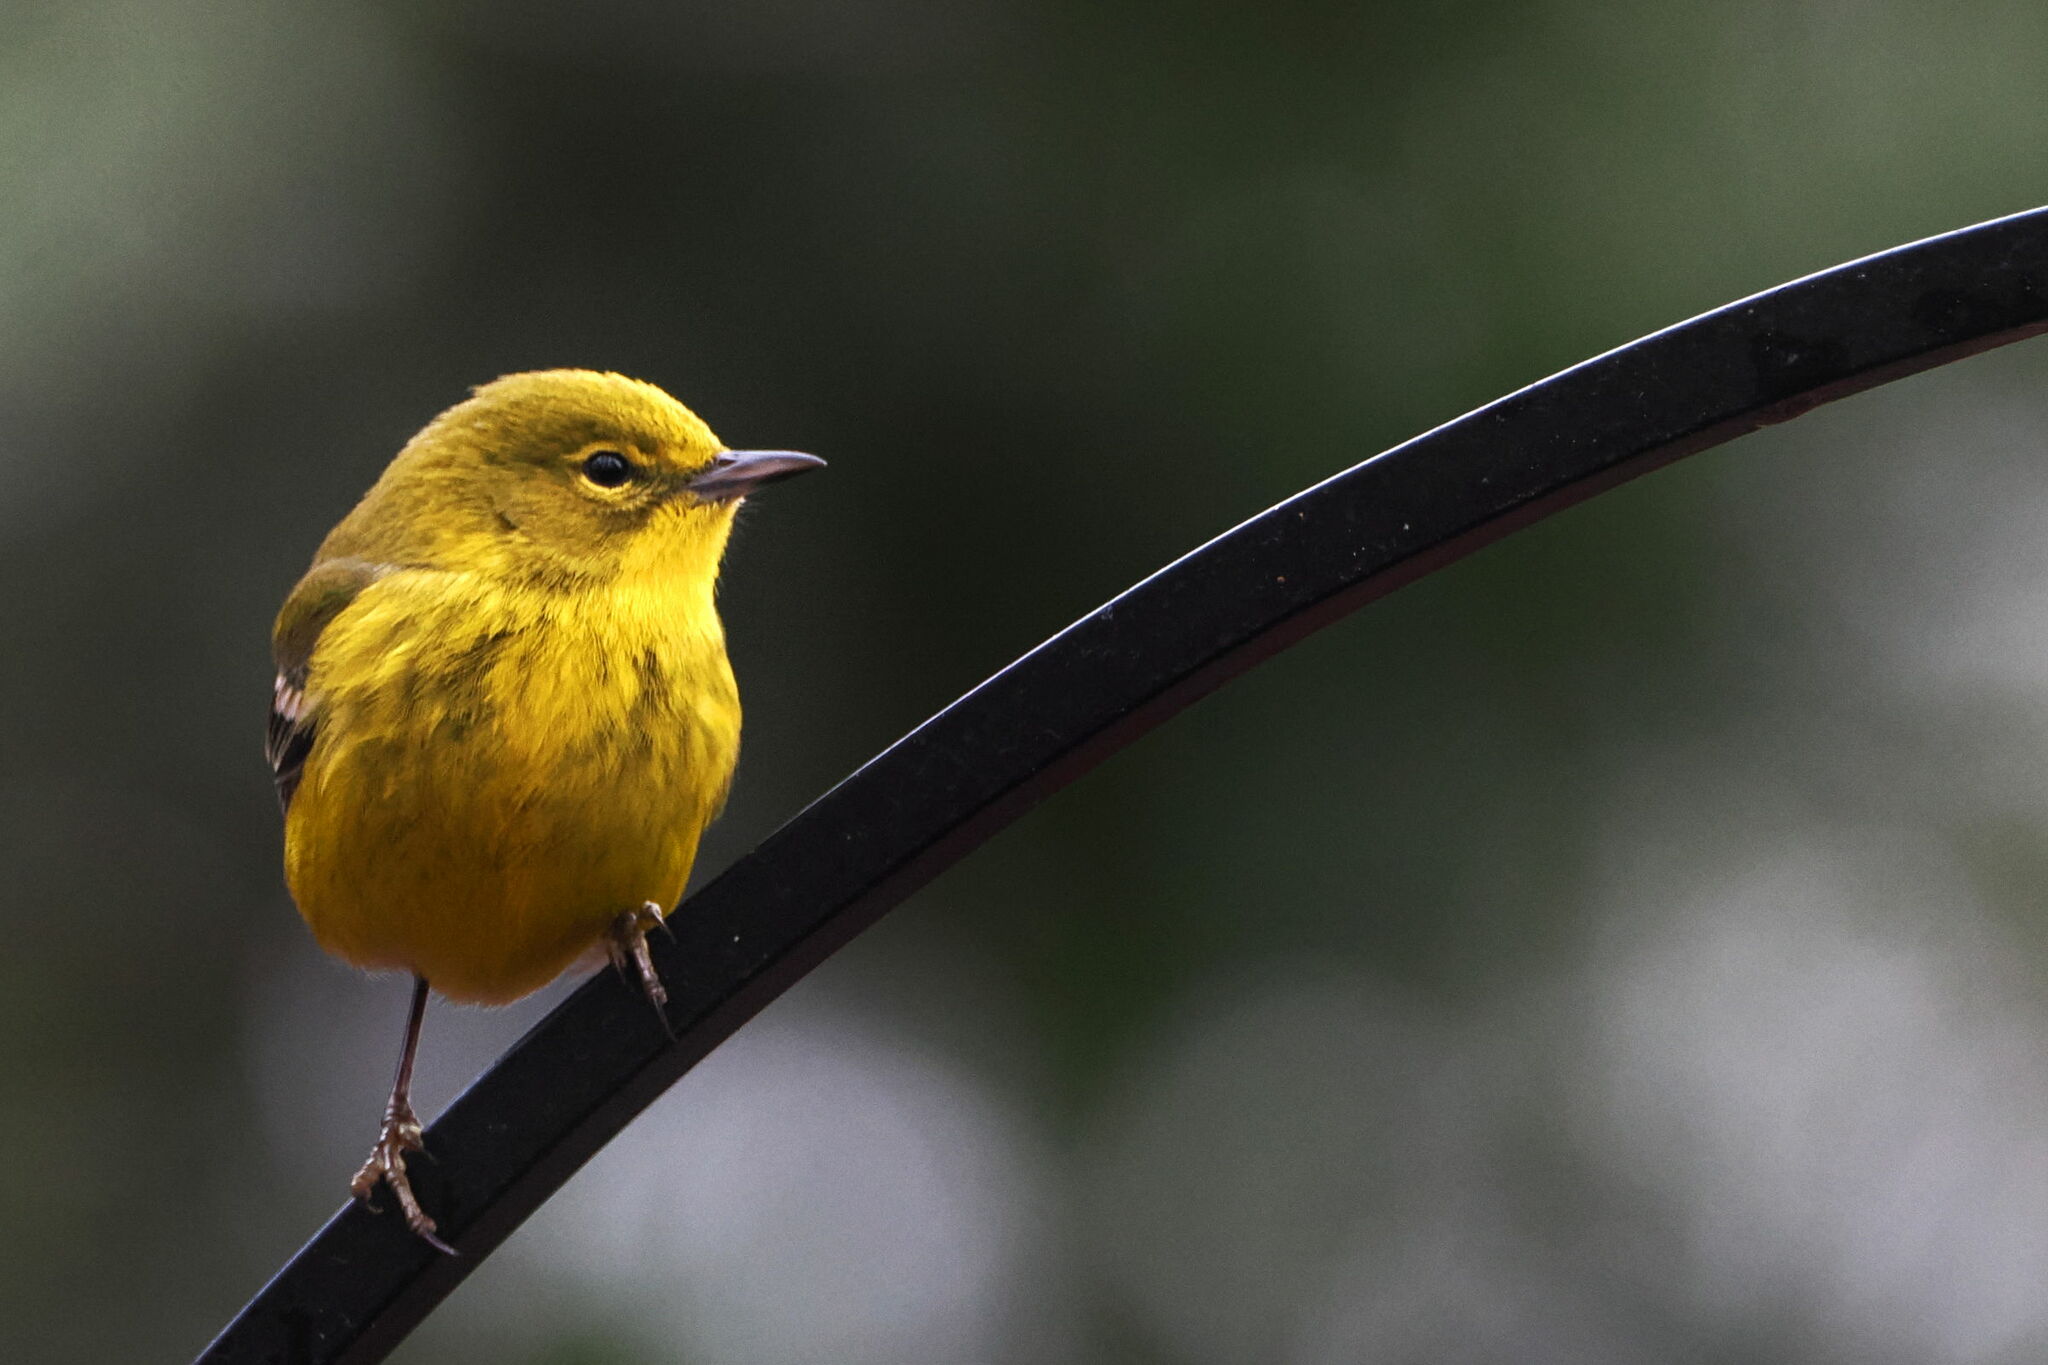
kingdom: Animalia
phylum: Chordata
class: Aves
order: Passeriformes
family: Parulidae
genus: Setophaga
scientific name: Setophaga pinus
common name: Pine warbler
